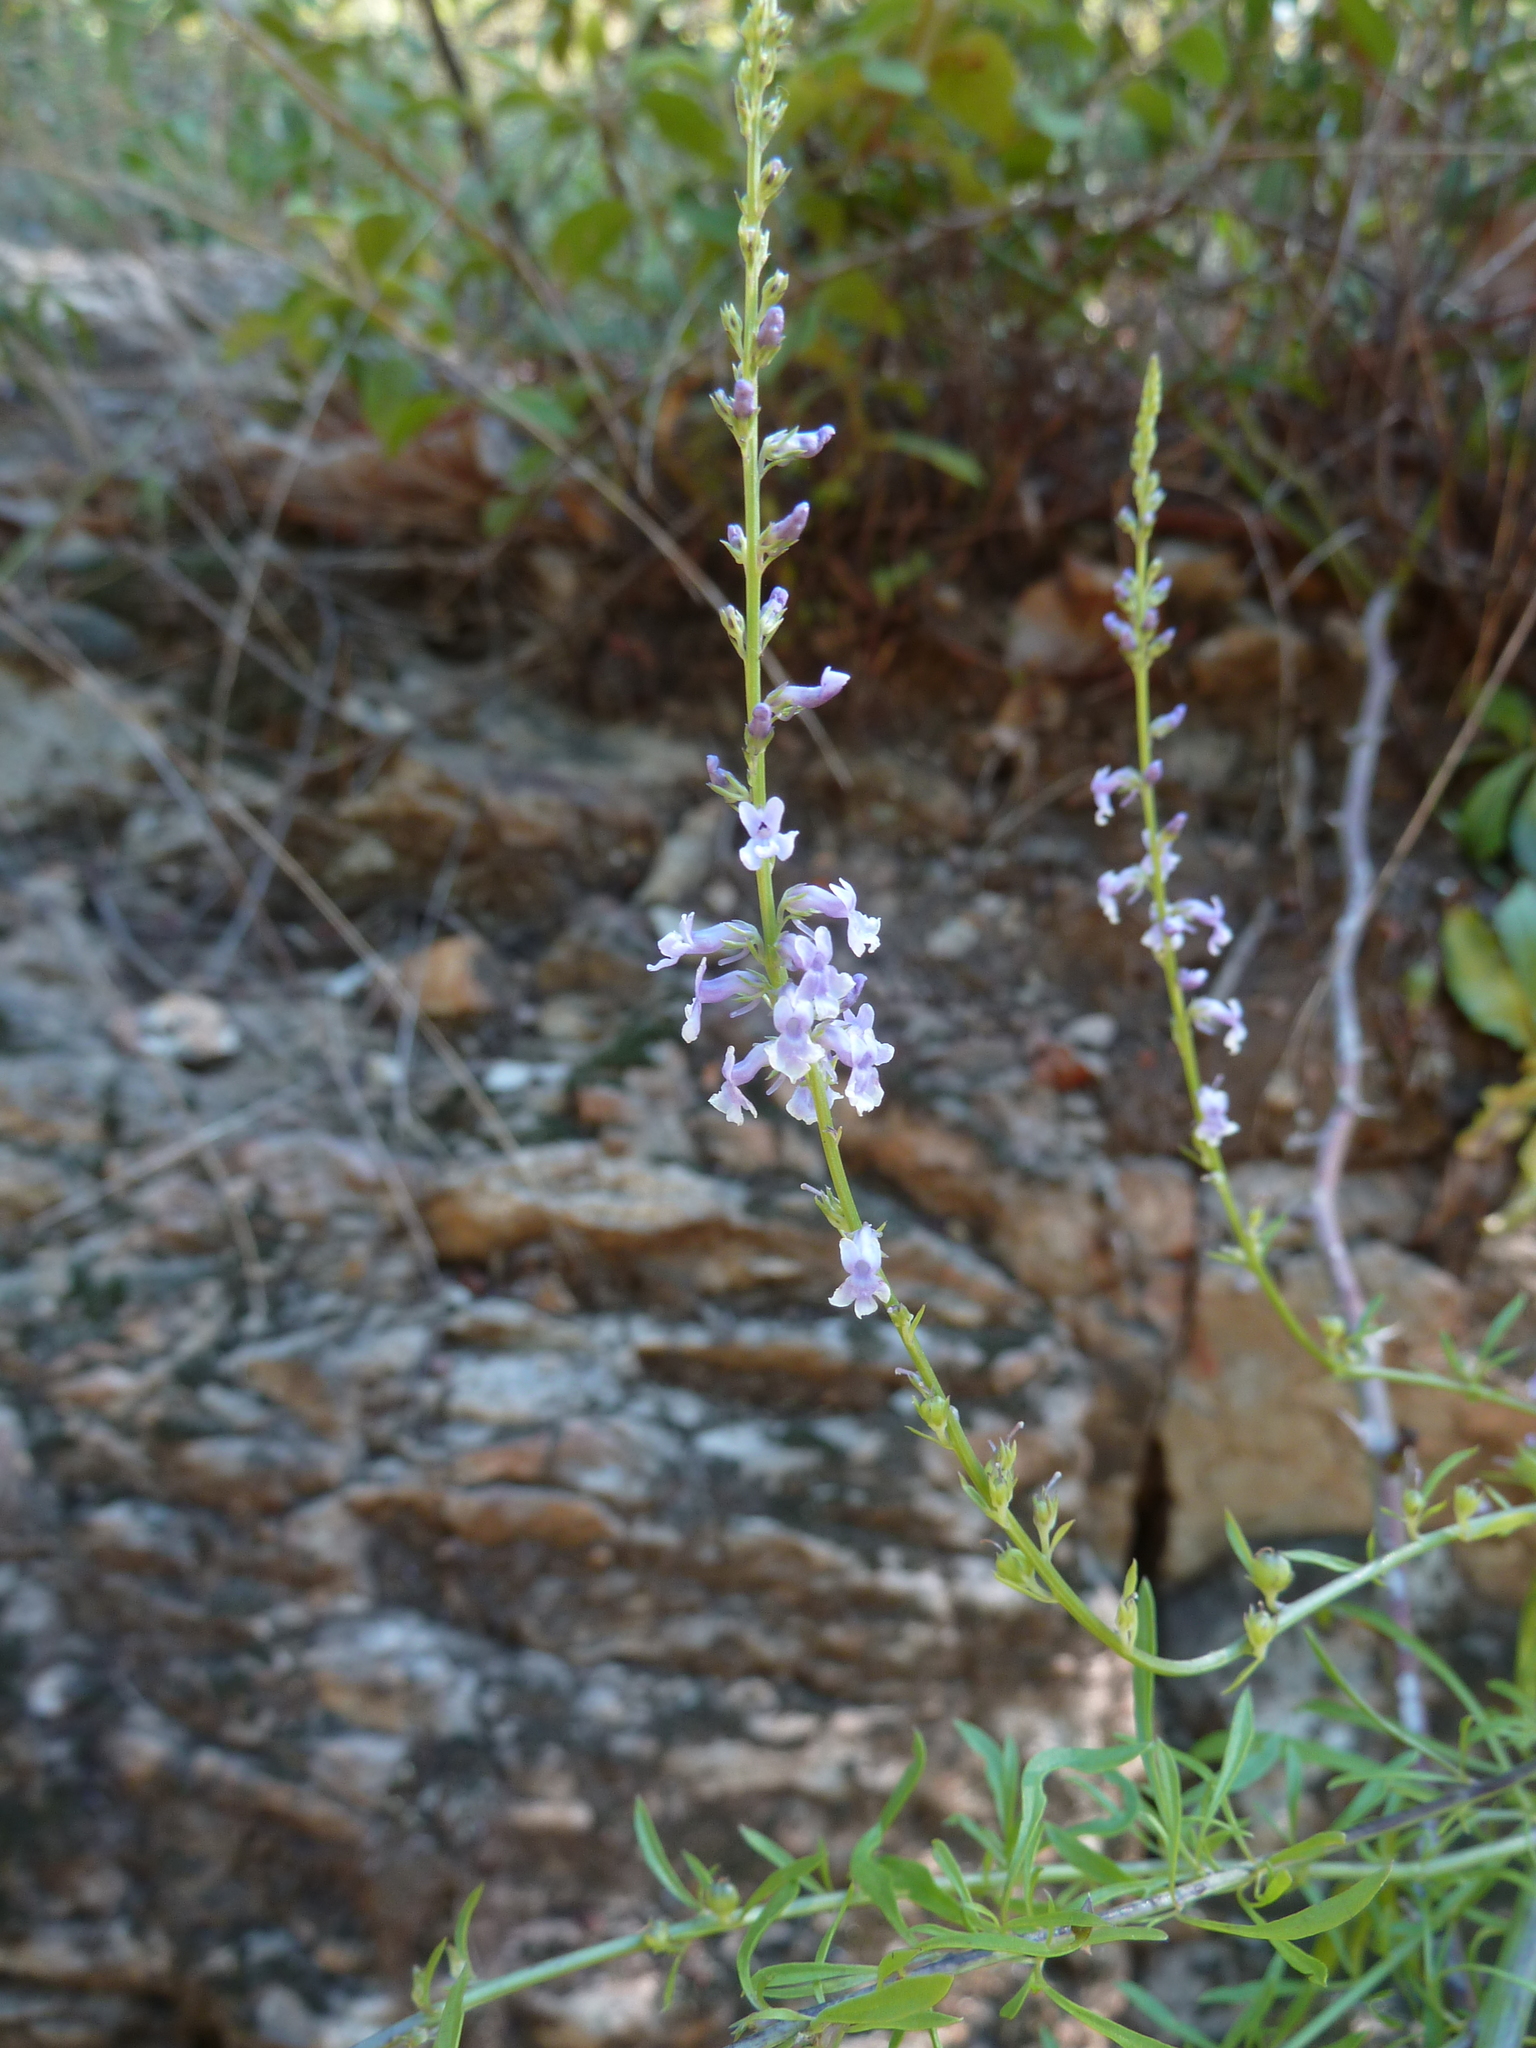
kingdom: Plantae
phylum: Tracheophyta
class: Magnoliopsida
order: Lamiales
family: Plantaginaceae
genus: Anarrhinum
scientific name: Anarrhinum bellidifolium
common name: Daisy-leaved toadflax
